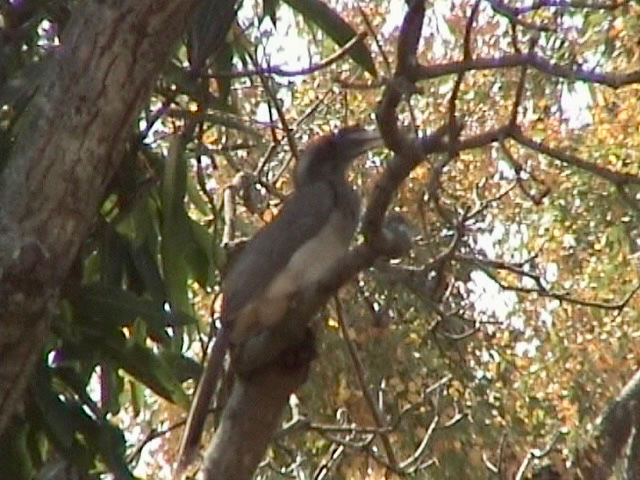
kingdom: Animalia
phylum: Chordata
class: Aves
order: Bucerotiformes
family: Bucerotidae
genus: Ocyceros
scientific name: Ocyceros birostris
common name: Indian grey hornbill
